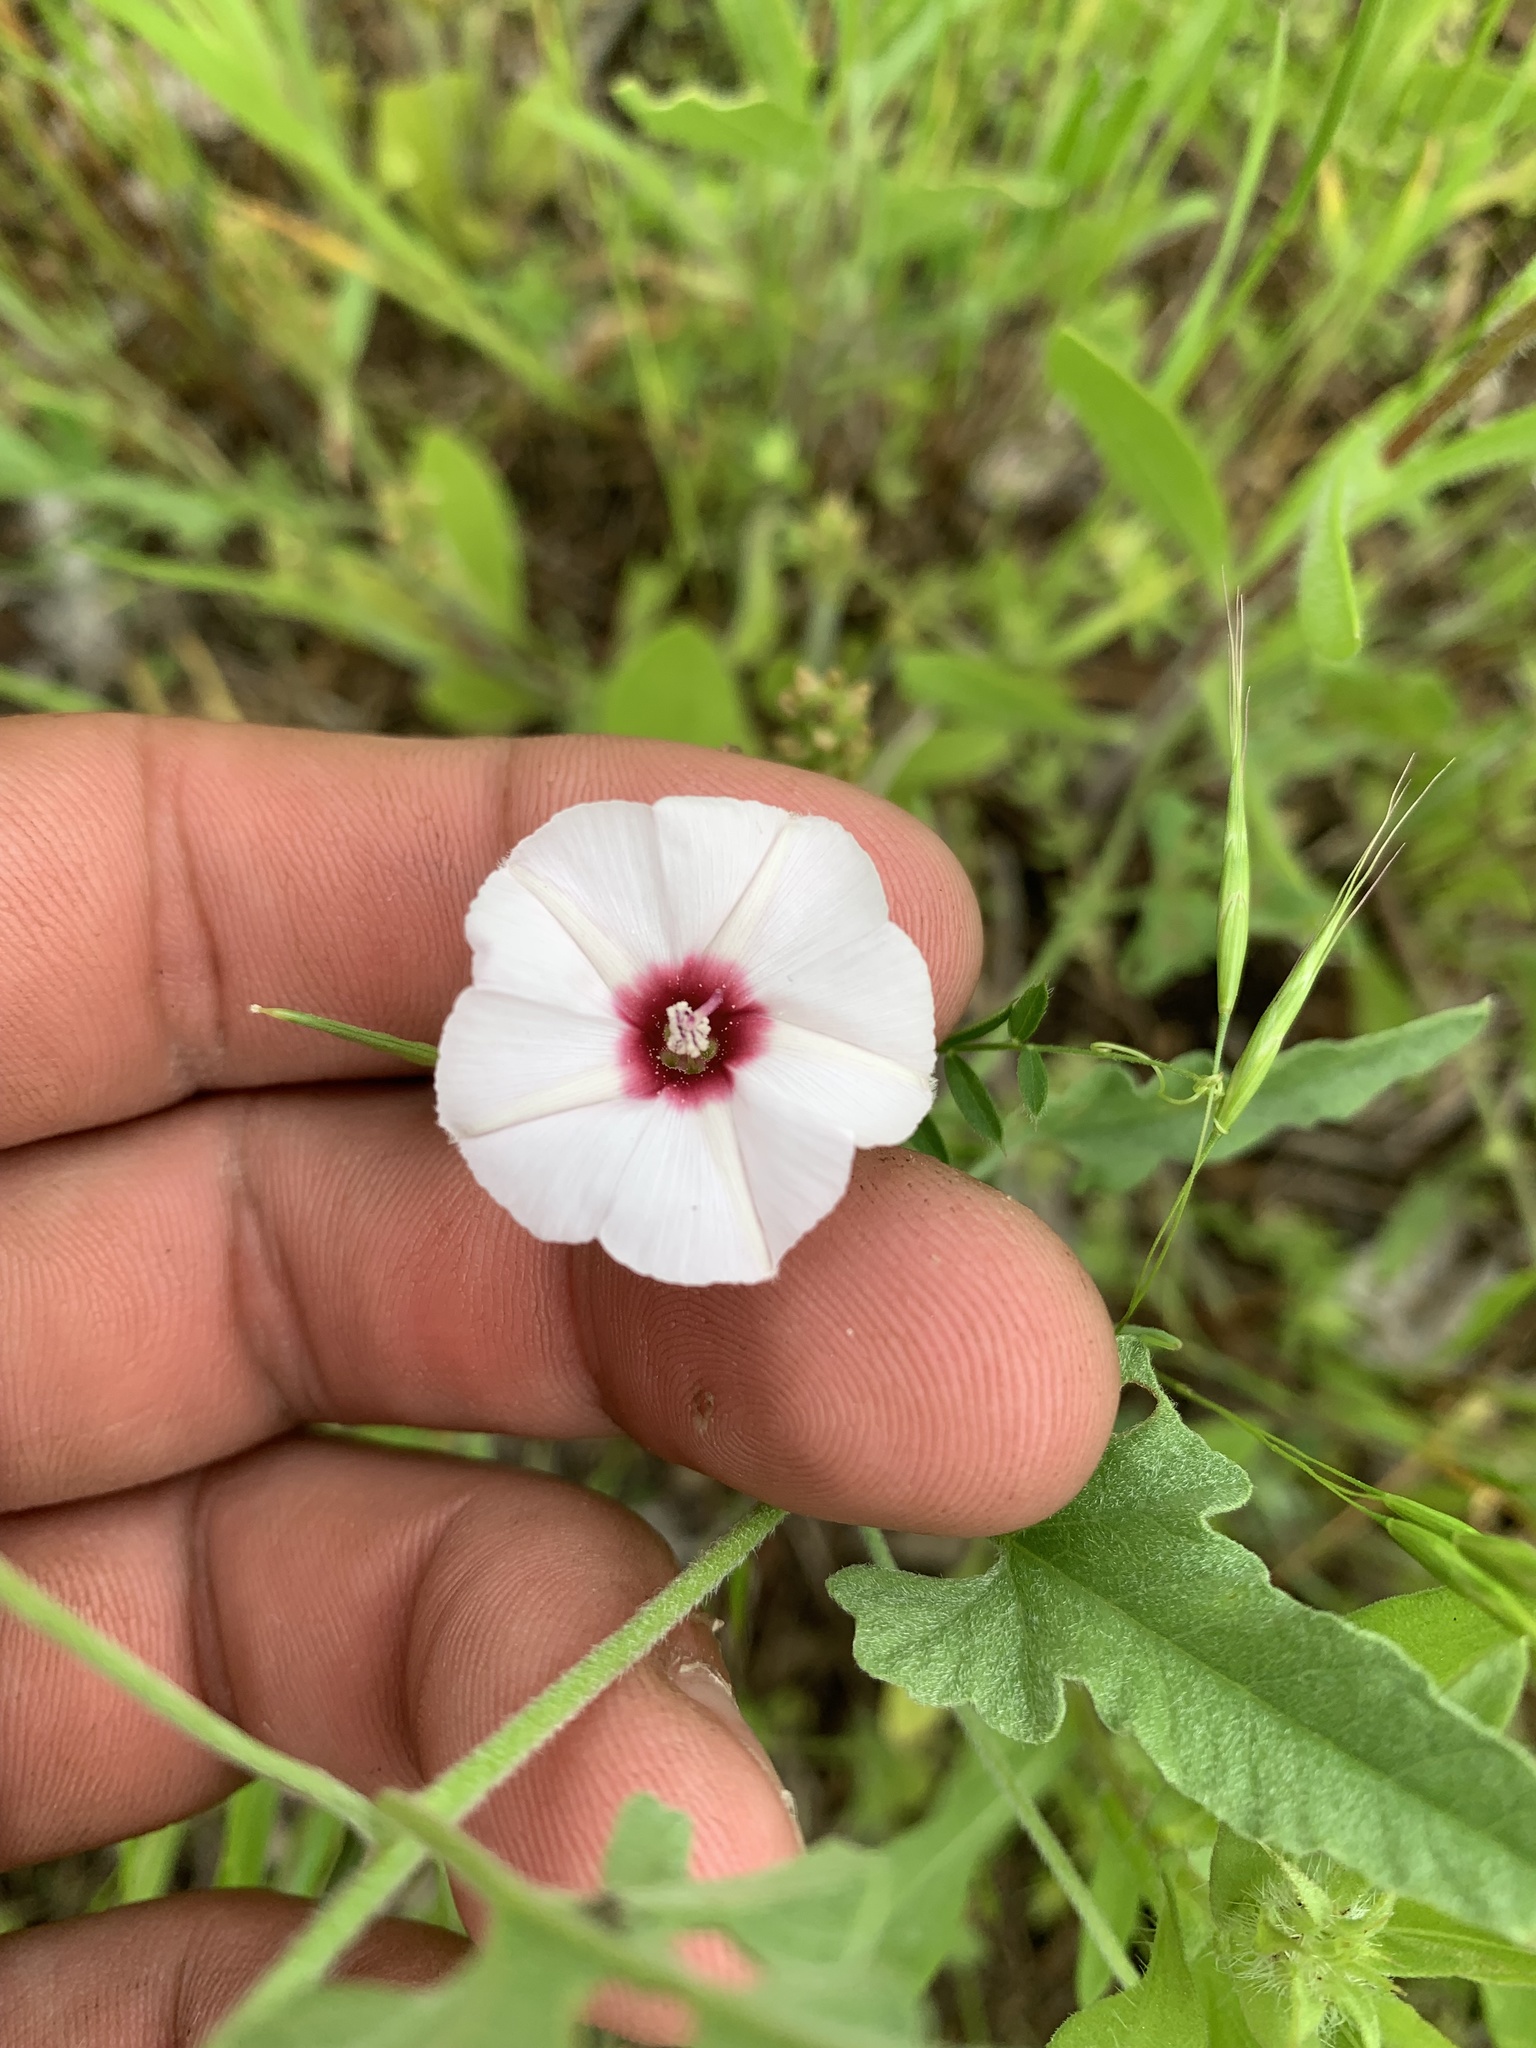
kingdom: Plantae
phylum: Tracheophyta
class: Magnoliopsida
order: Solanales
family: Convolvulaceae
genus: Convolvulus
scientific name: Convolvulus equitans
